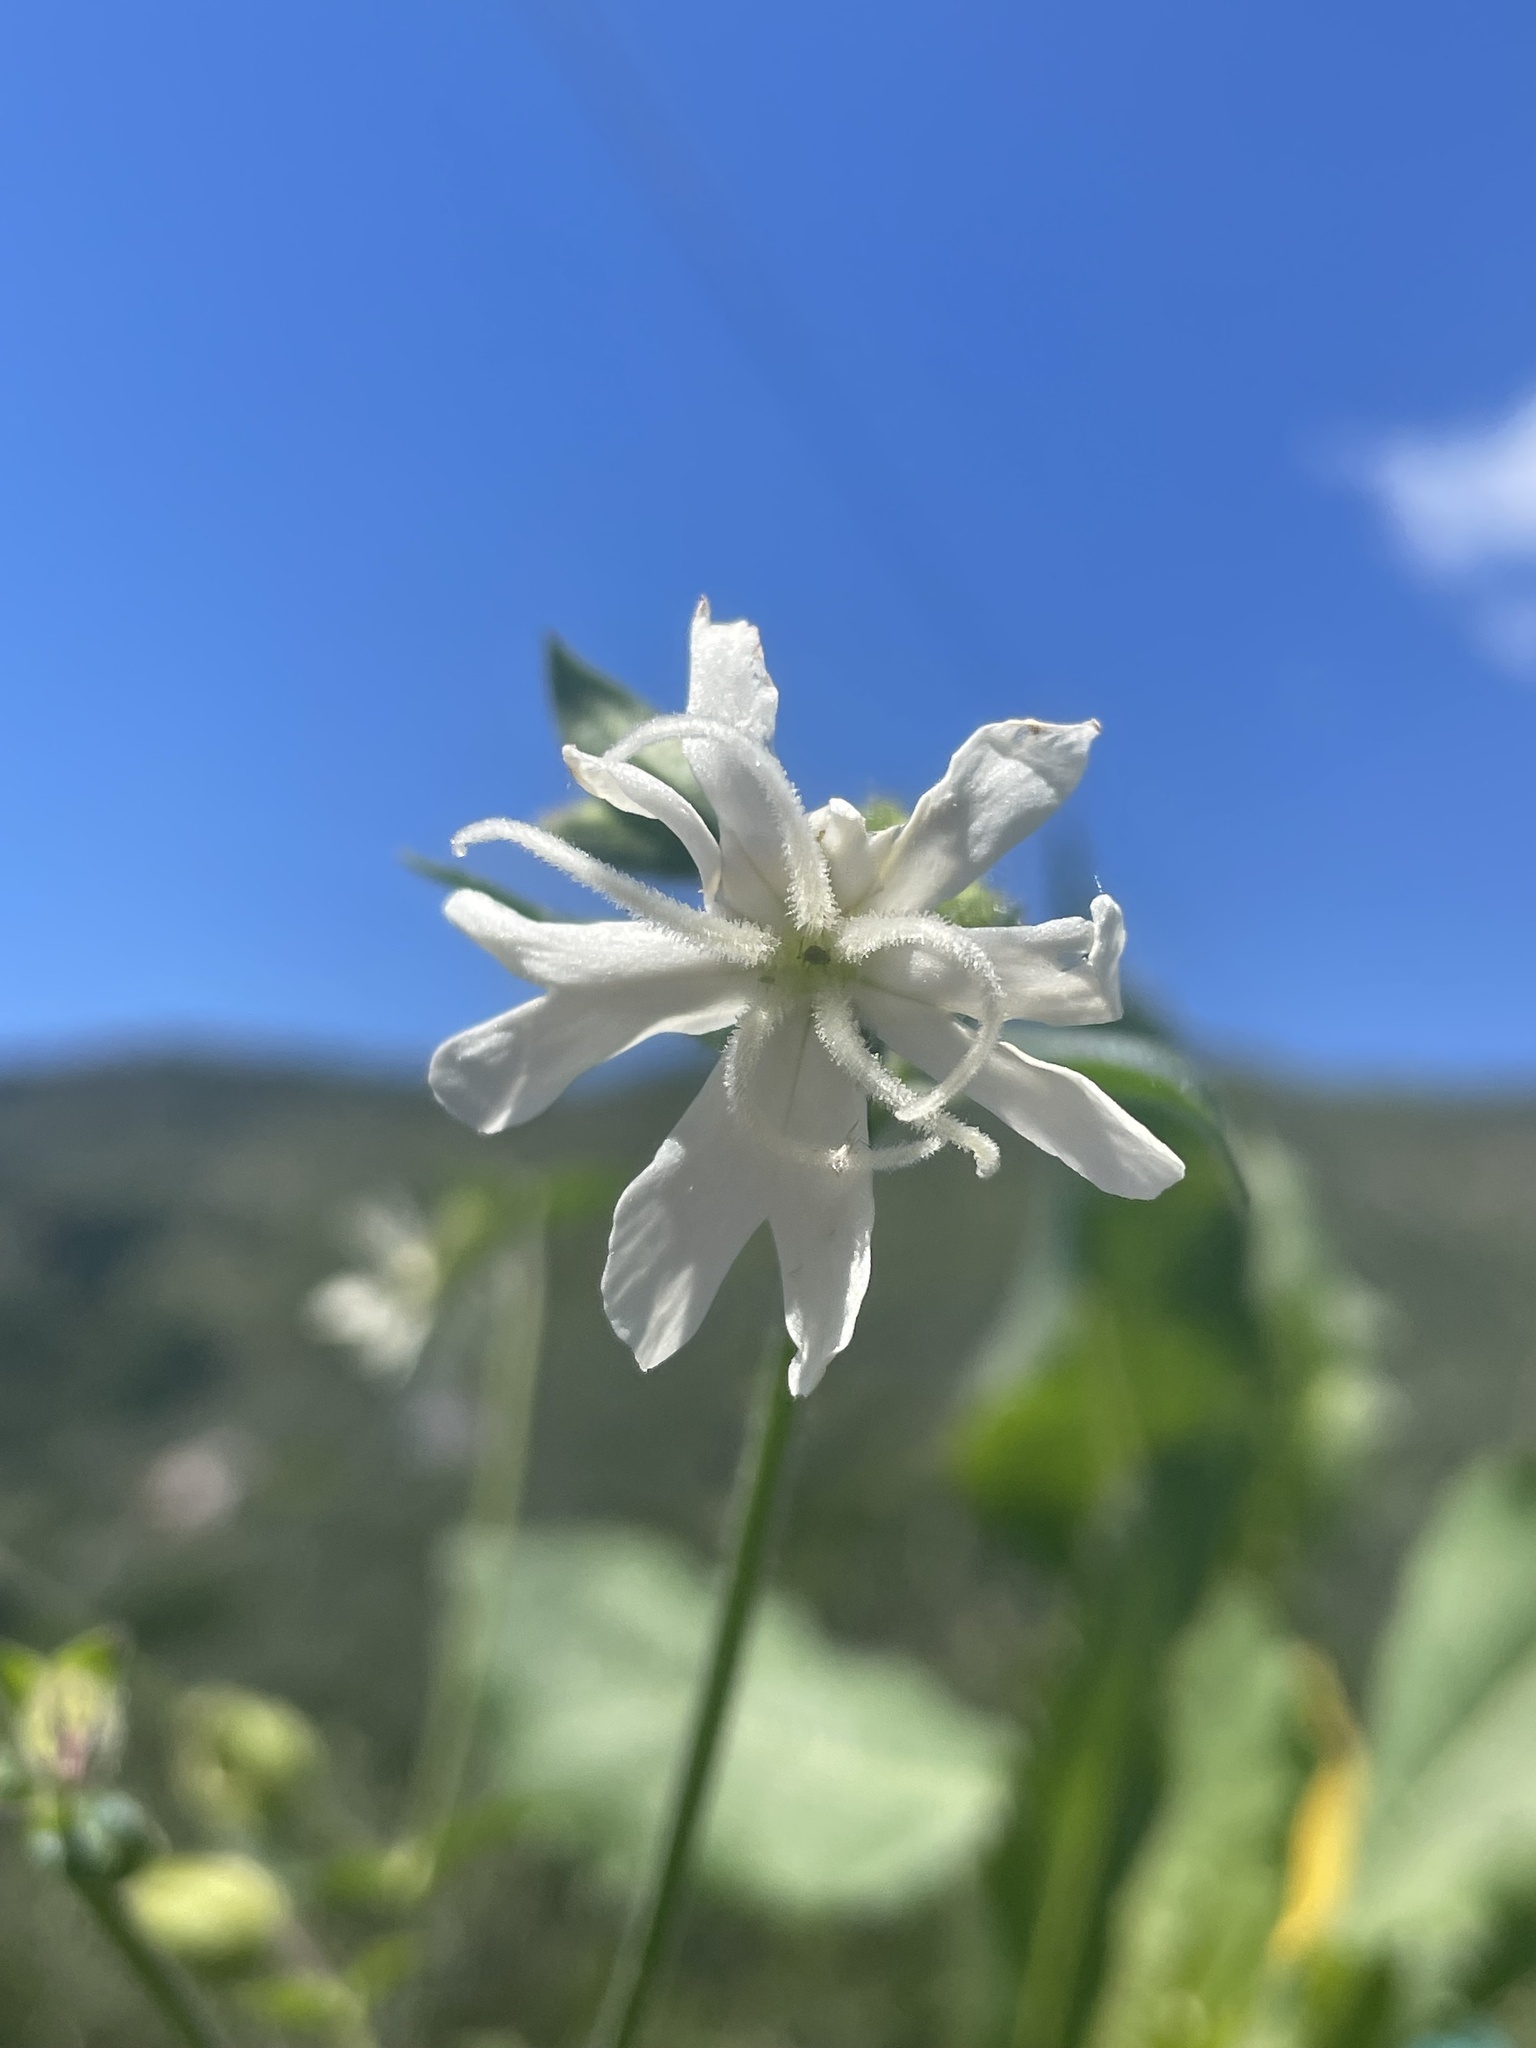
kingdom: Plantae
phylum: Tracheophyta
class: Magnoliopsida
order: Caryophyllales
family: Caryophyllaceae
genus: Silene
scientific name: Silene latifolia
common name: White campion
